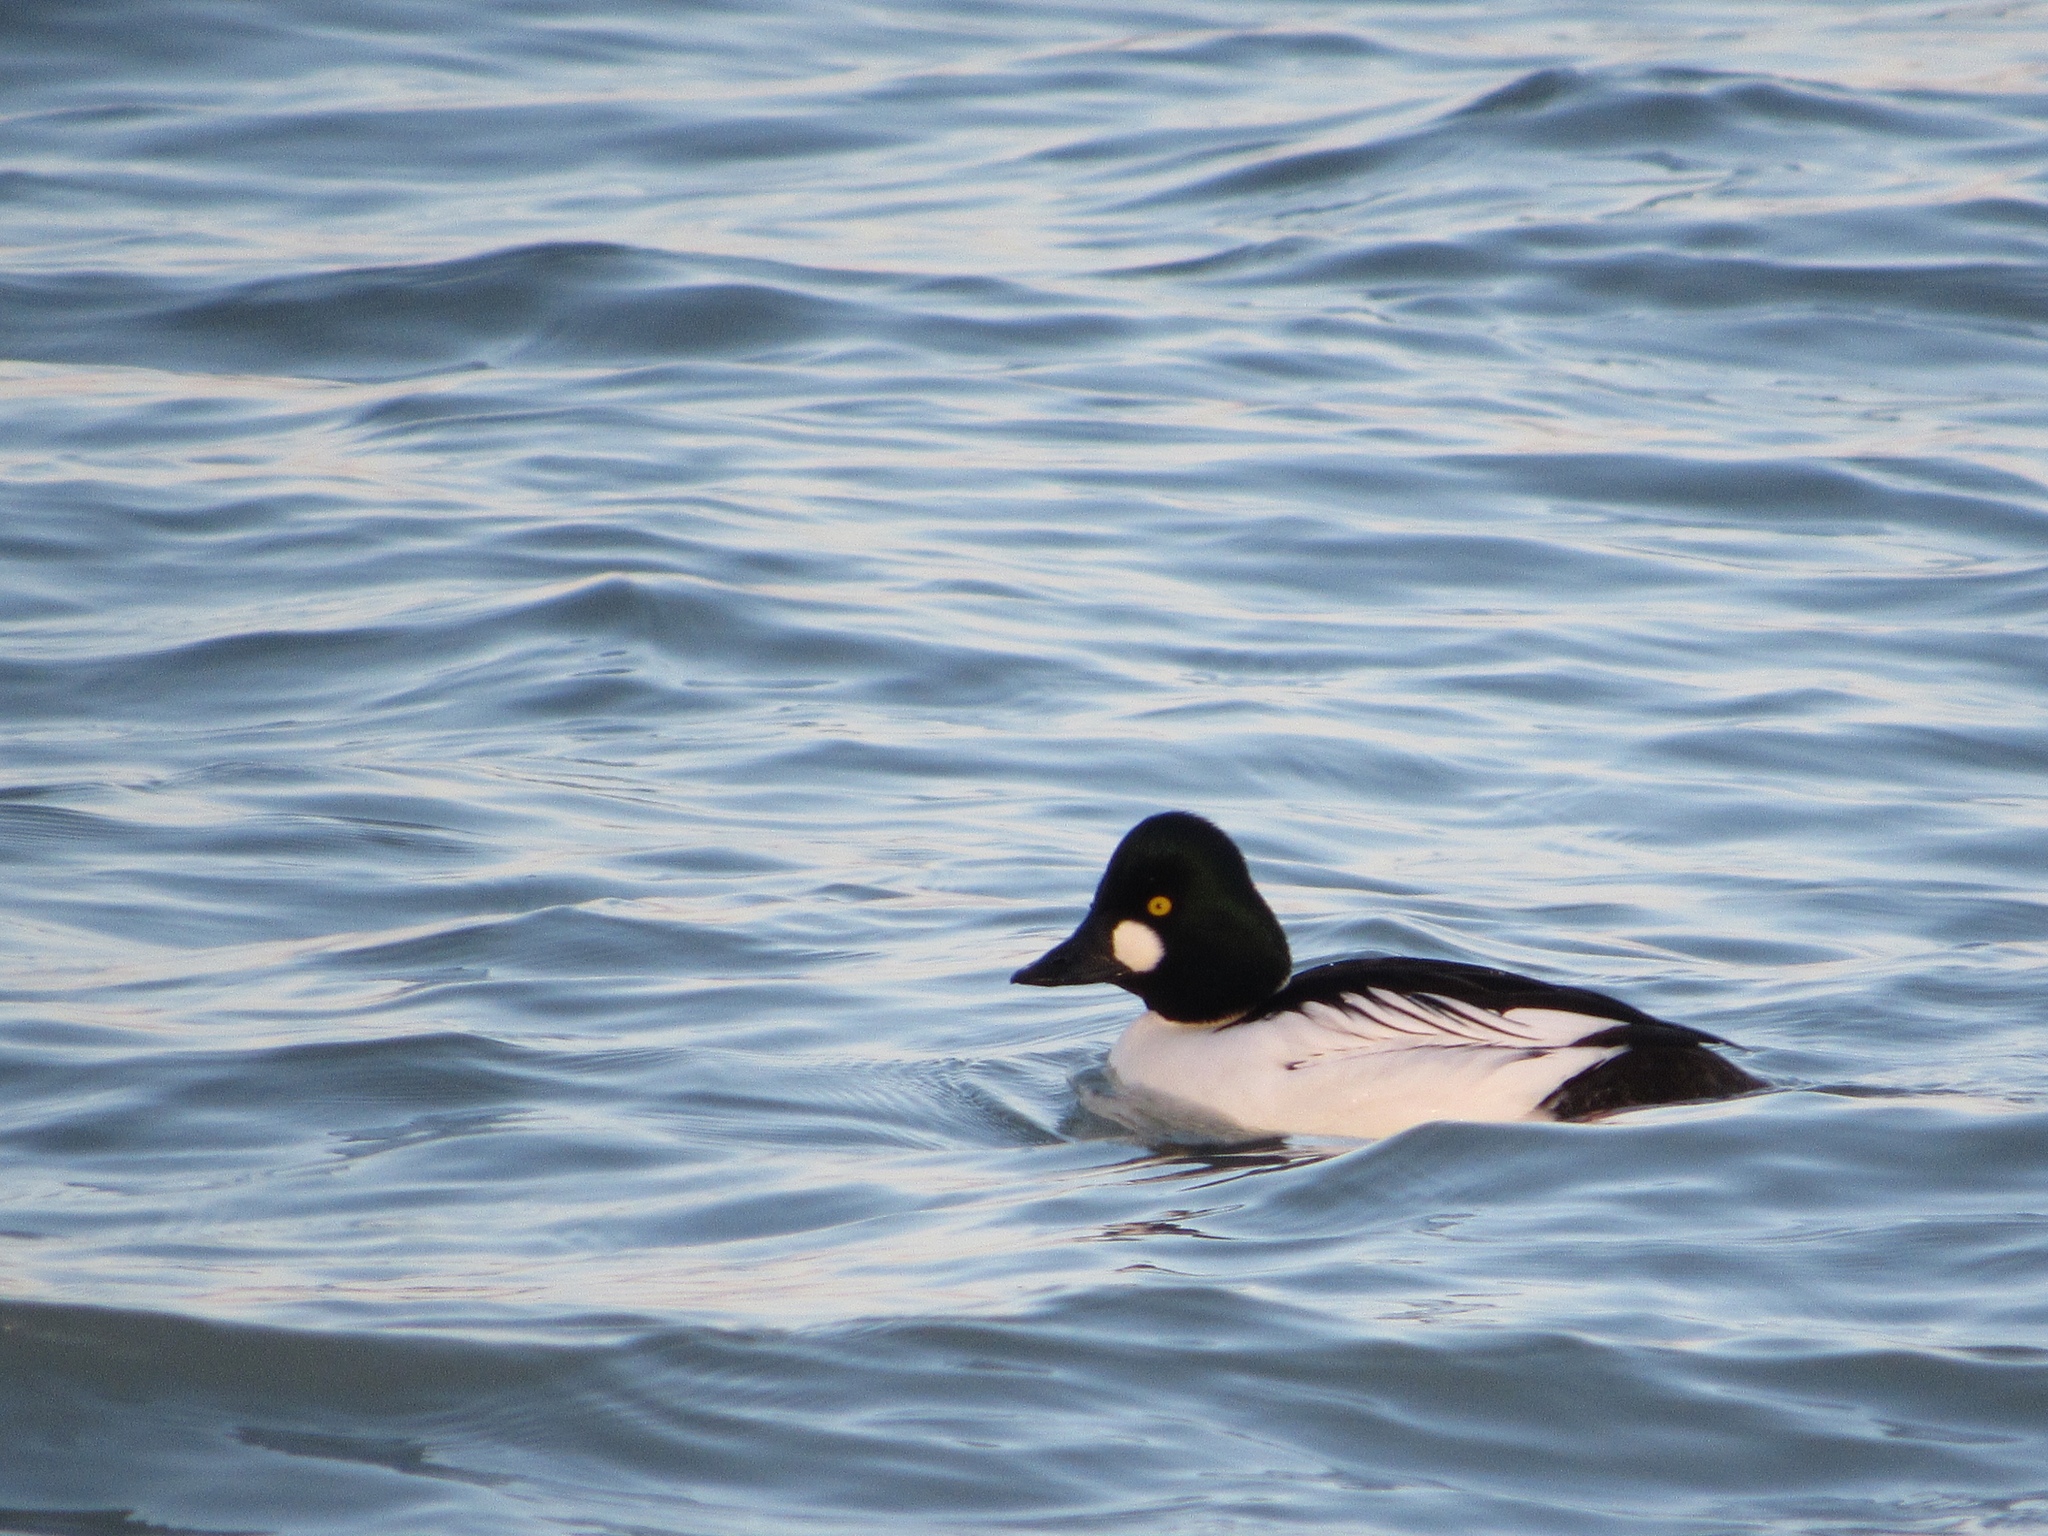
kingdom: Animalia
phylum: Chordata
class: Aves
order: Anseriformes
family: Anatidae
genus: Bucephala
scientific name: Bucephala clangula
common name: Common goldeneye
